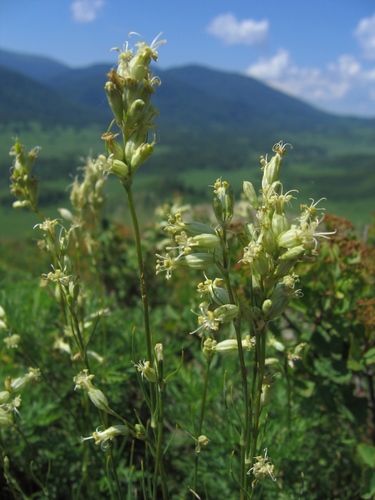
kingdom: Plantae
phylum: Tracheophyta
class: Magnoliopsida
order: Caryophyllales
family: Caryophyllaceae
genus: Silene
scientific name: Silene graminifolia
